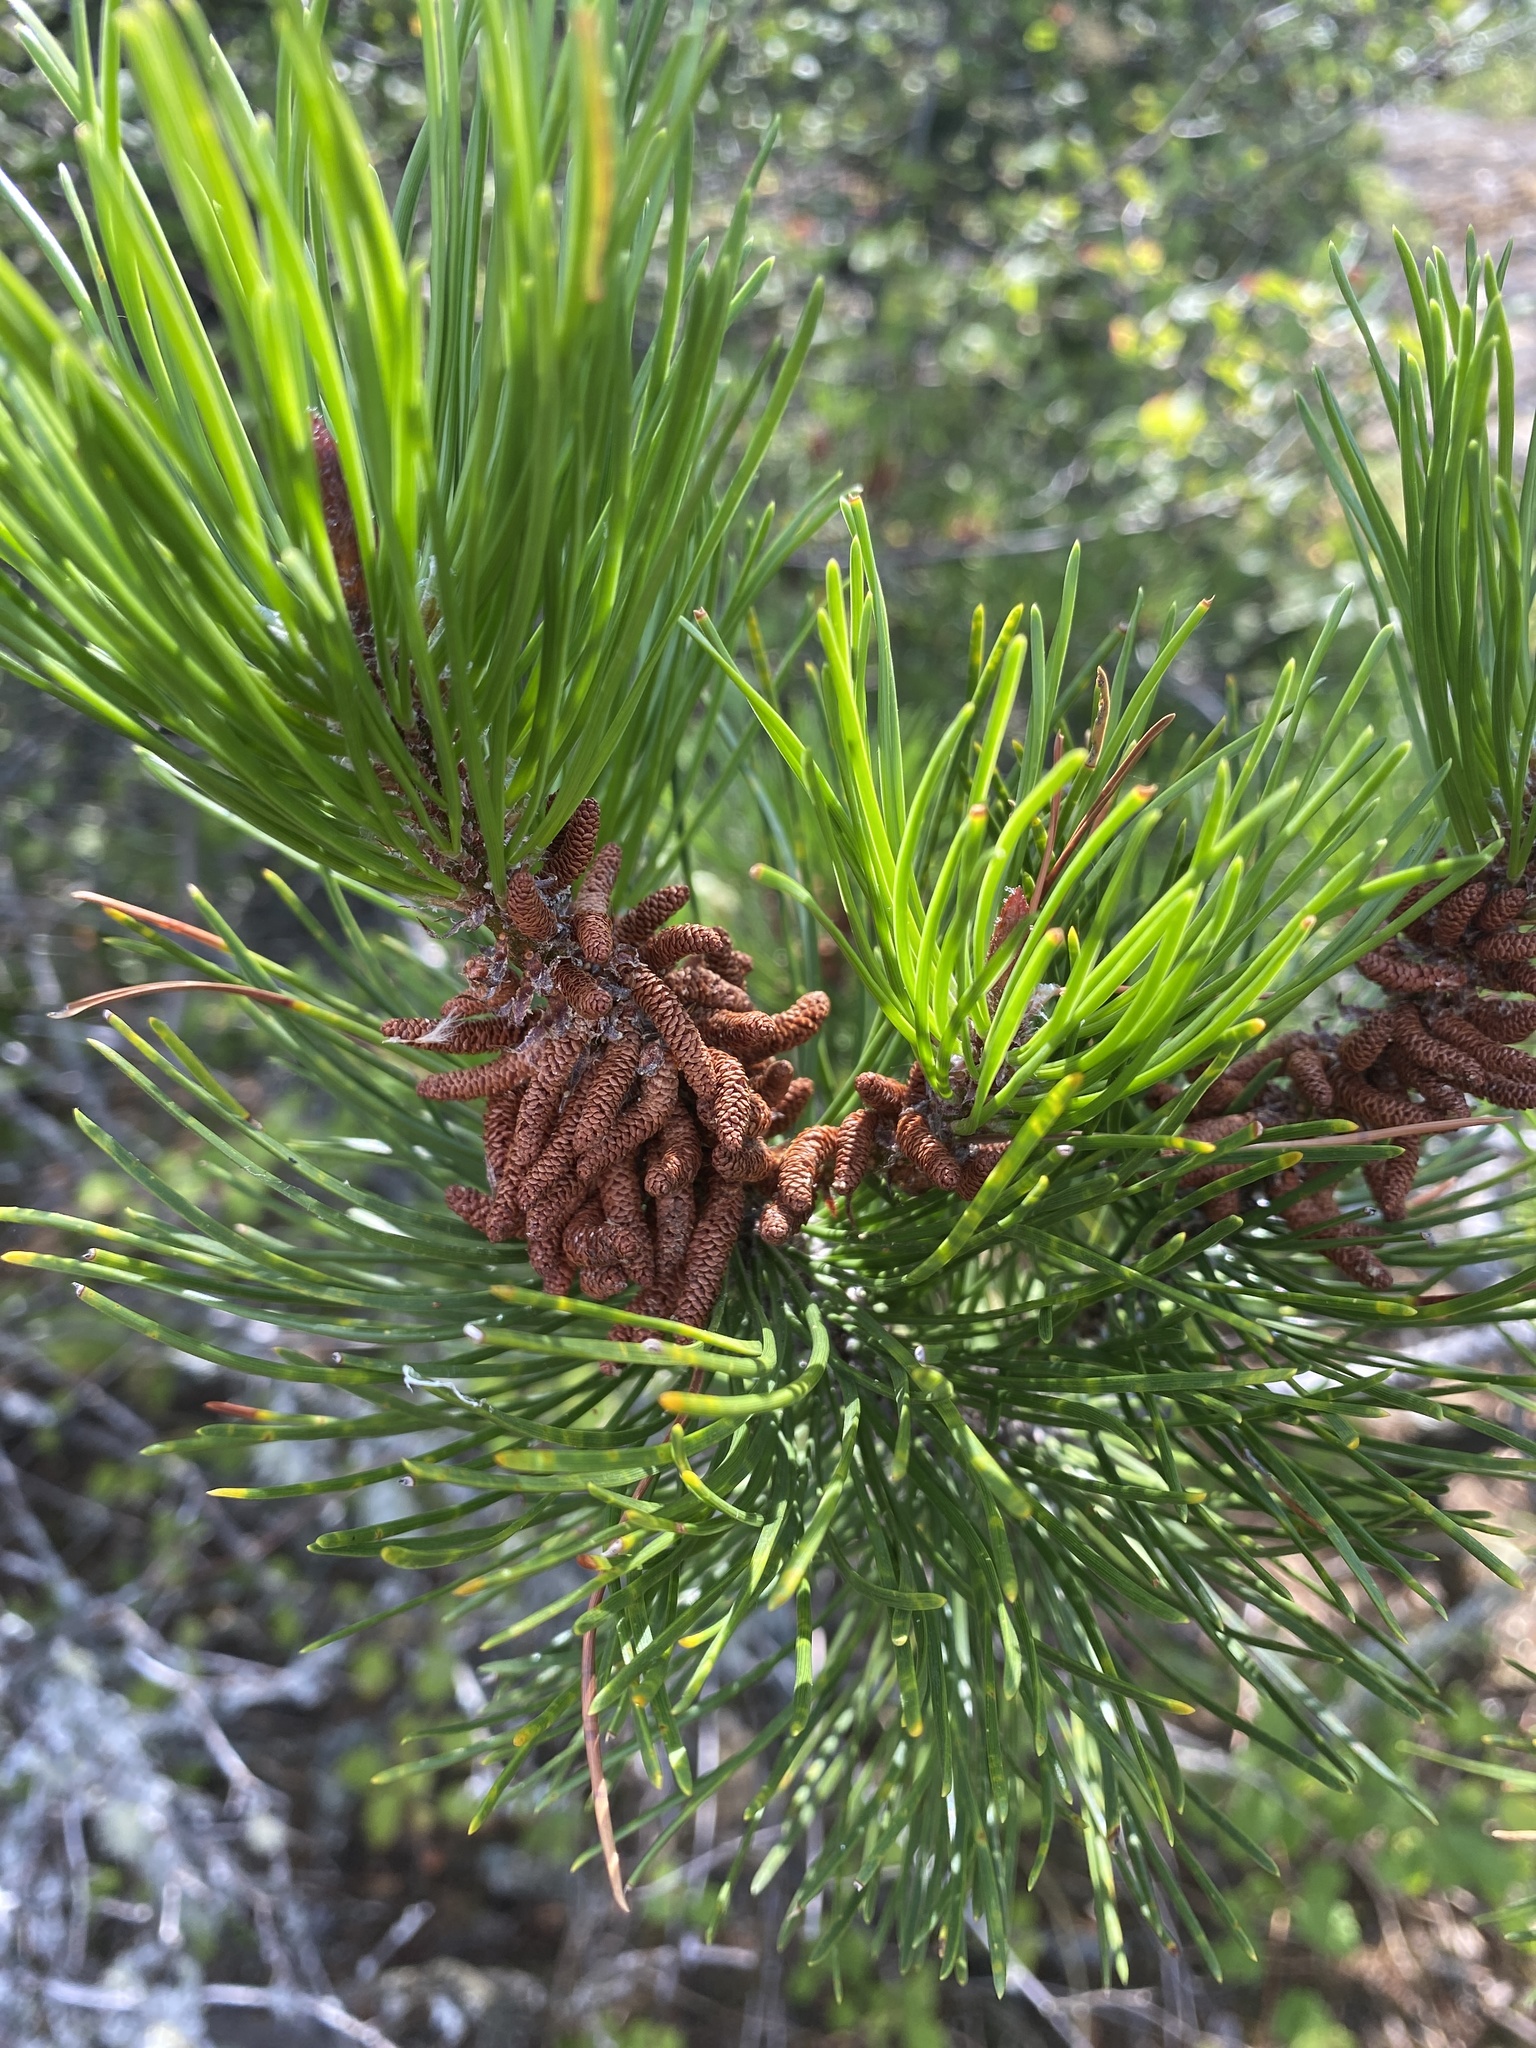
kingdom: Plantae
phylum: Tracheophyta
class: Pinopsida
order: Pinales
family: Pinaceae
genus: Pinus
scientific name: Pinus contorta
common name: Lodgepole pine
